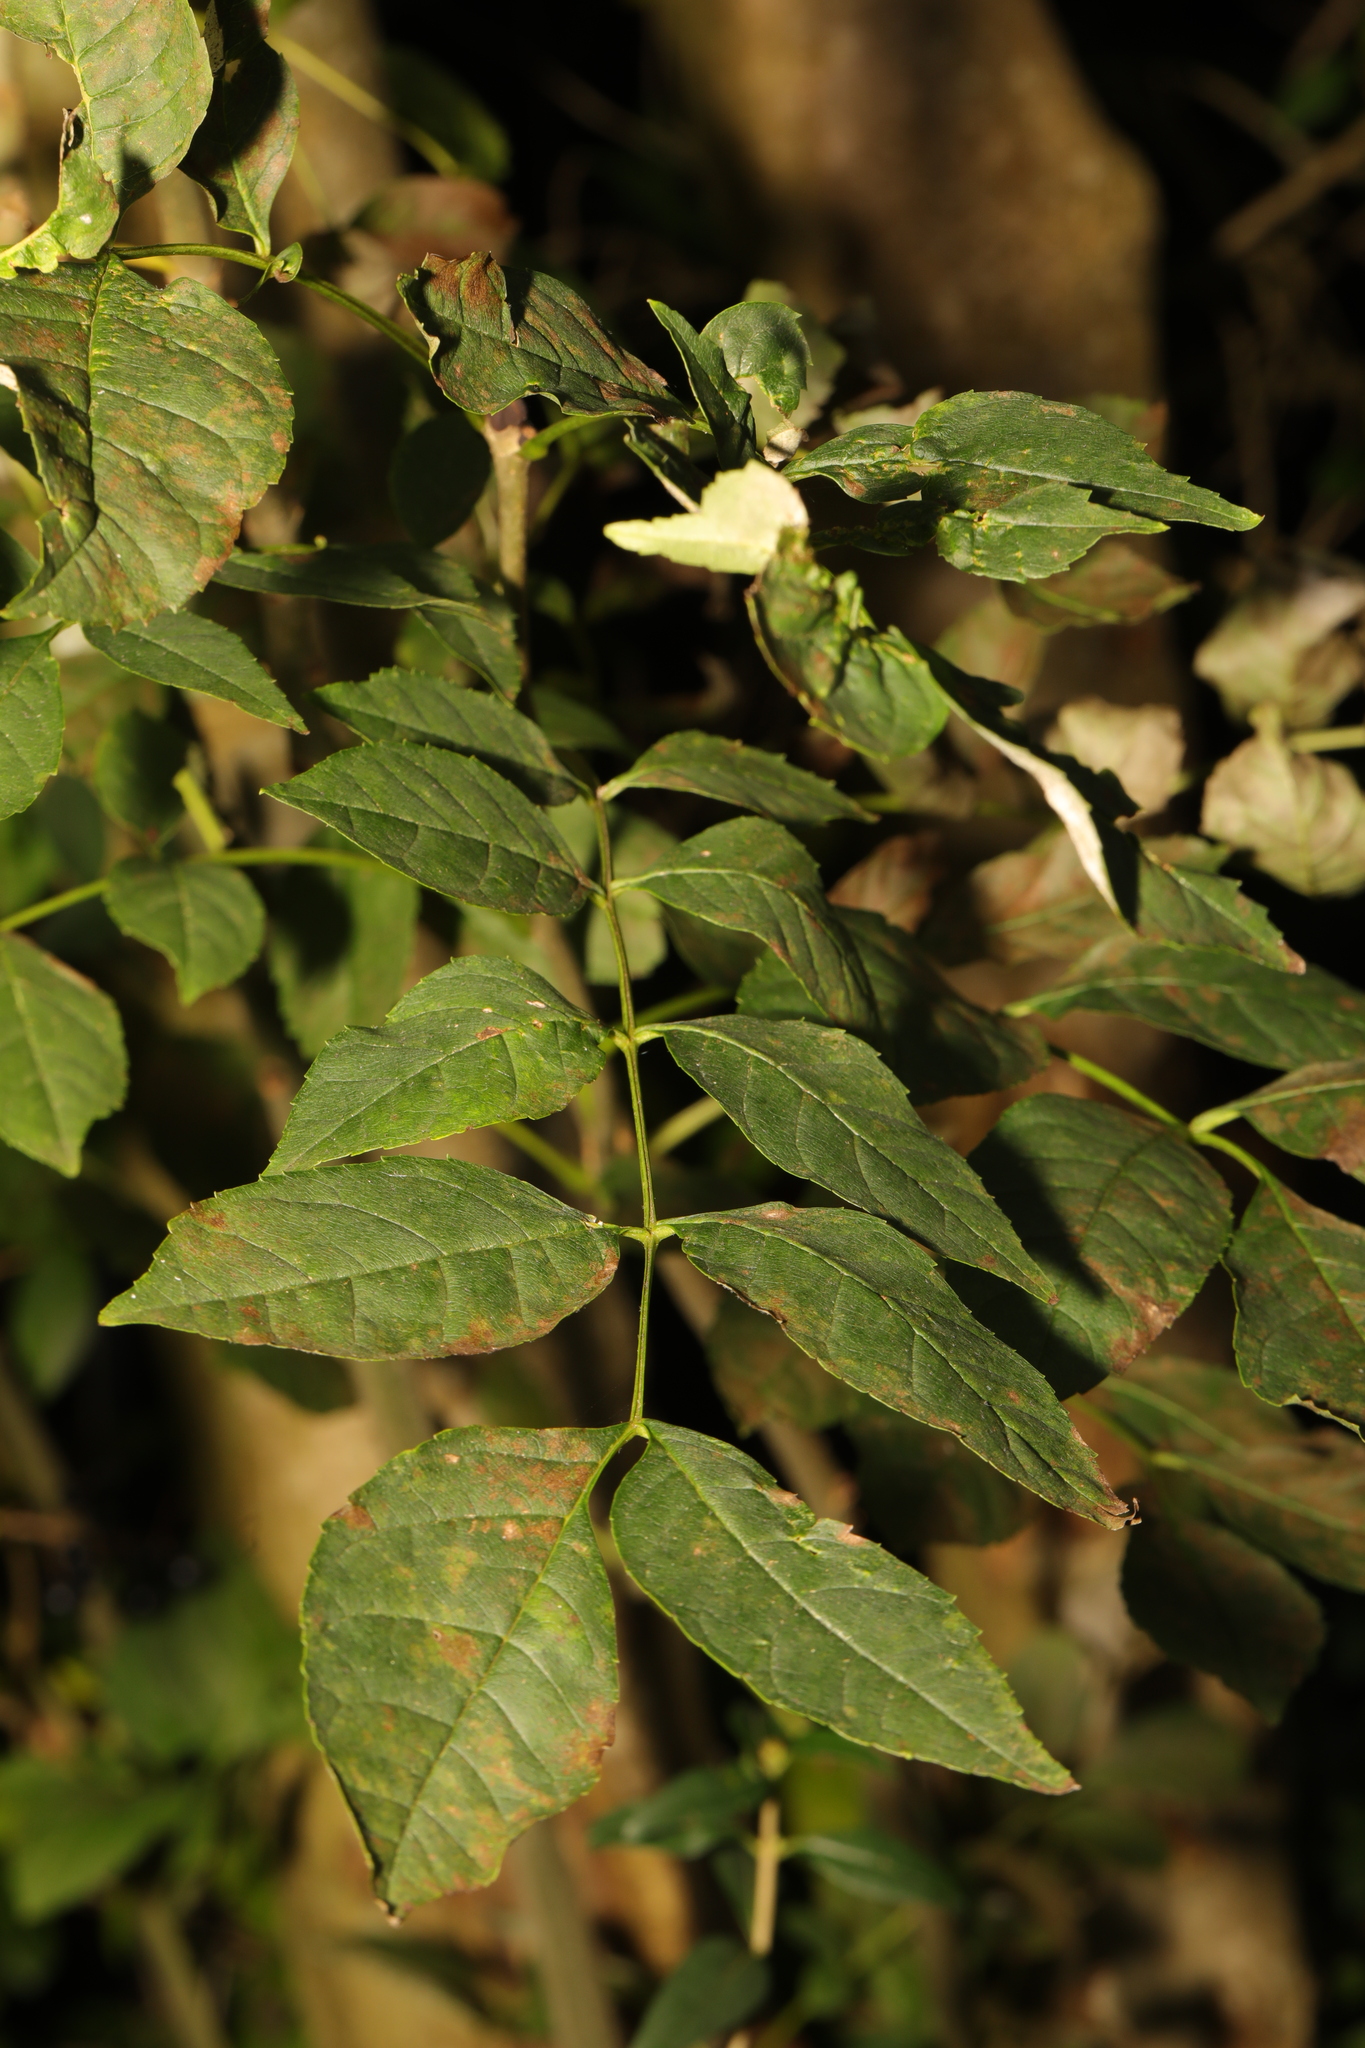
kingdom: Plantae
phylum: Tracheophyta
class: Magnoliopsida
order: Lamiales
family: Oleaceae
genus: Fraxinus
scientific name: Fraxinus excelsior
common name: European ash
